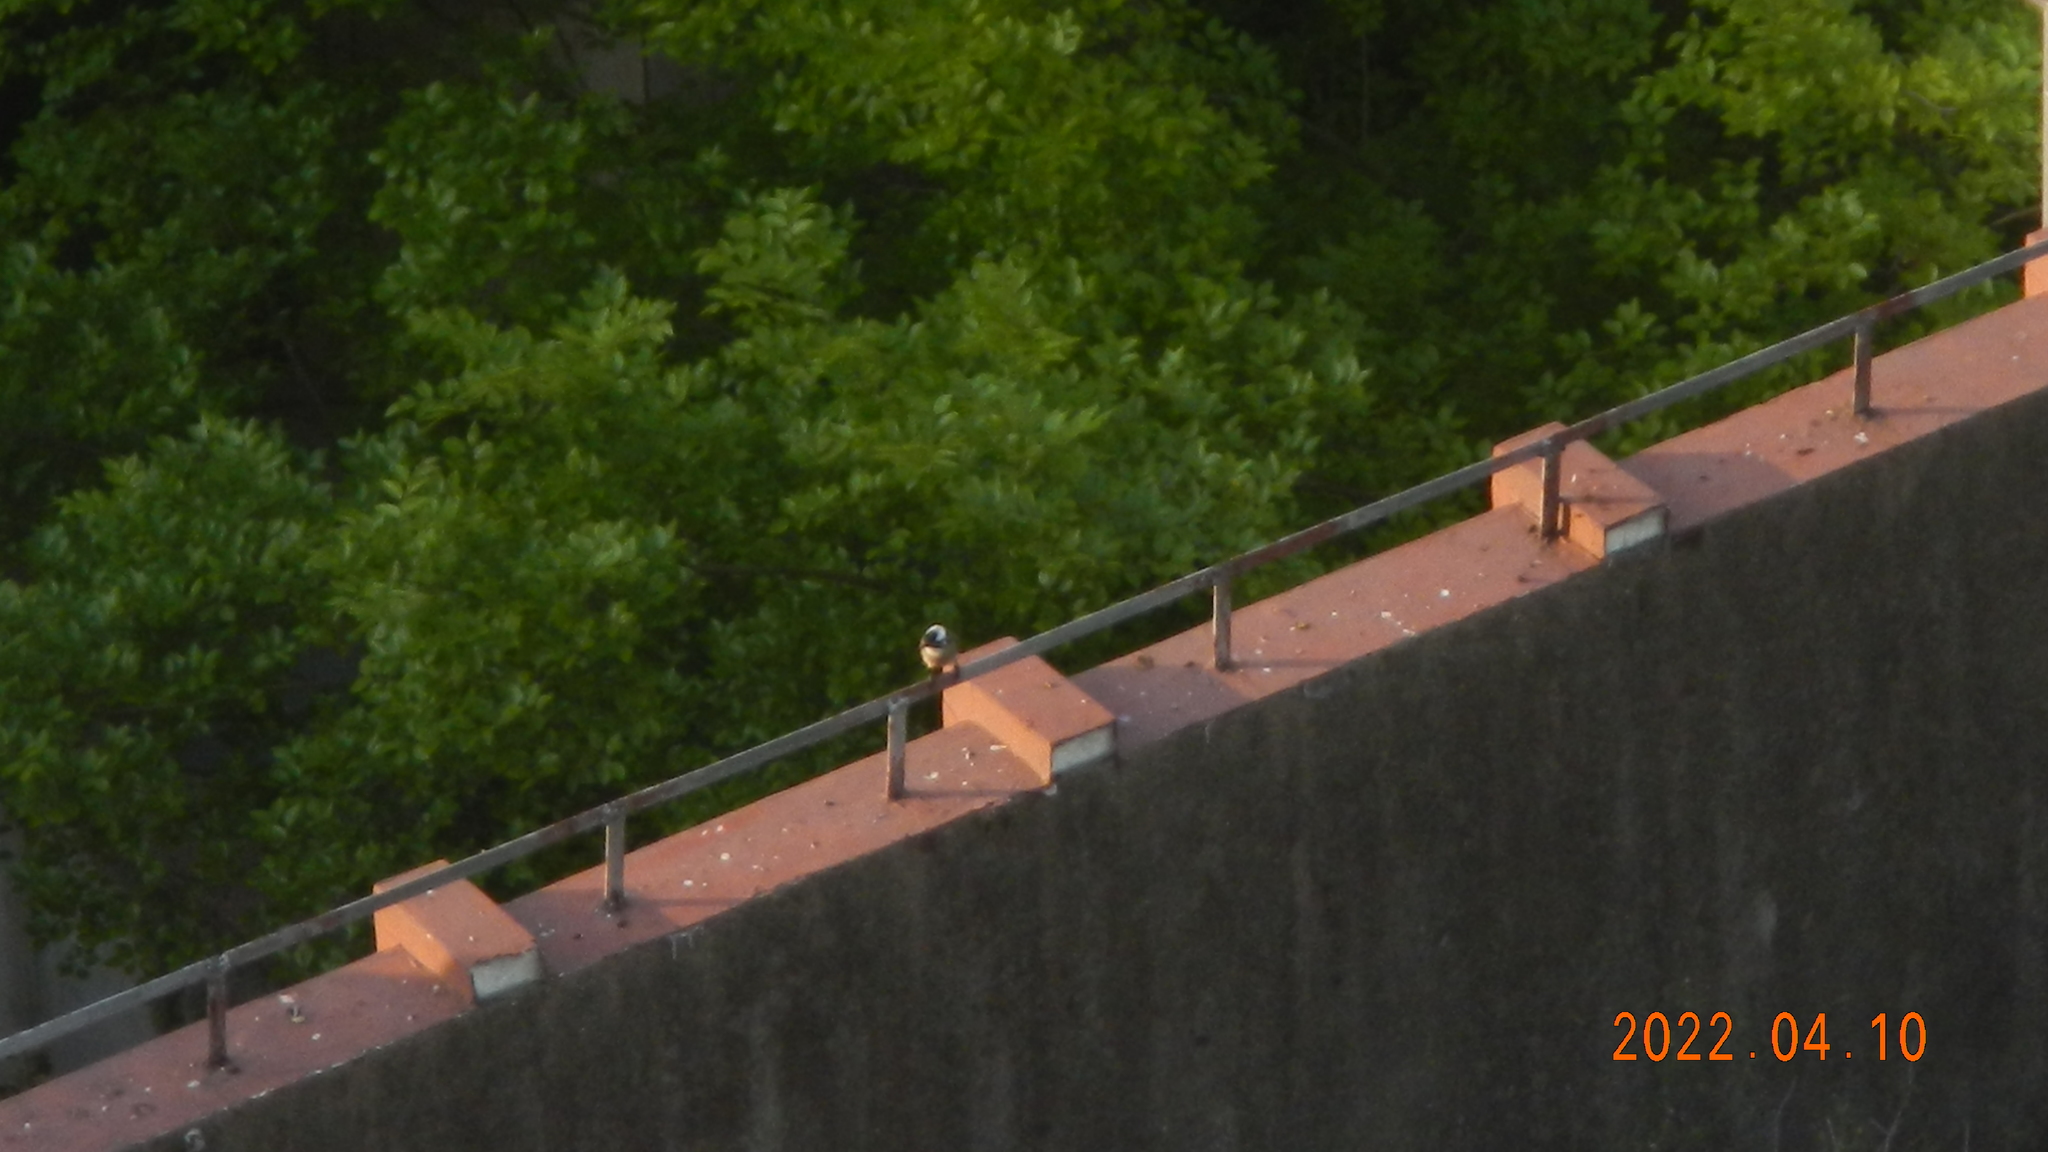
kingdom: Animalia
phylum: Chordata
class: Aves
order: Passeriformes
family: Pycnonotidae
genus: Pycnonotus
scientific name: Pycnonotus sinensis
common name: Light-vented bulbul
